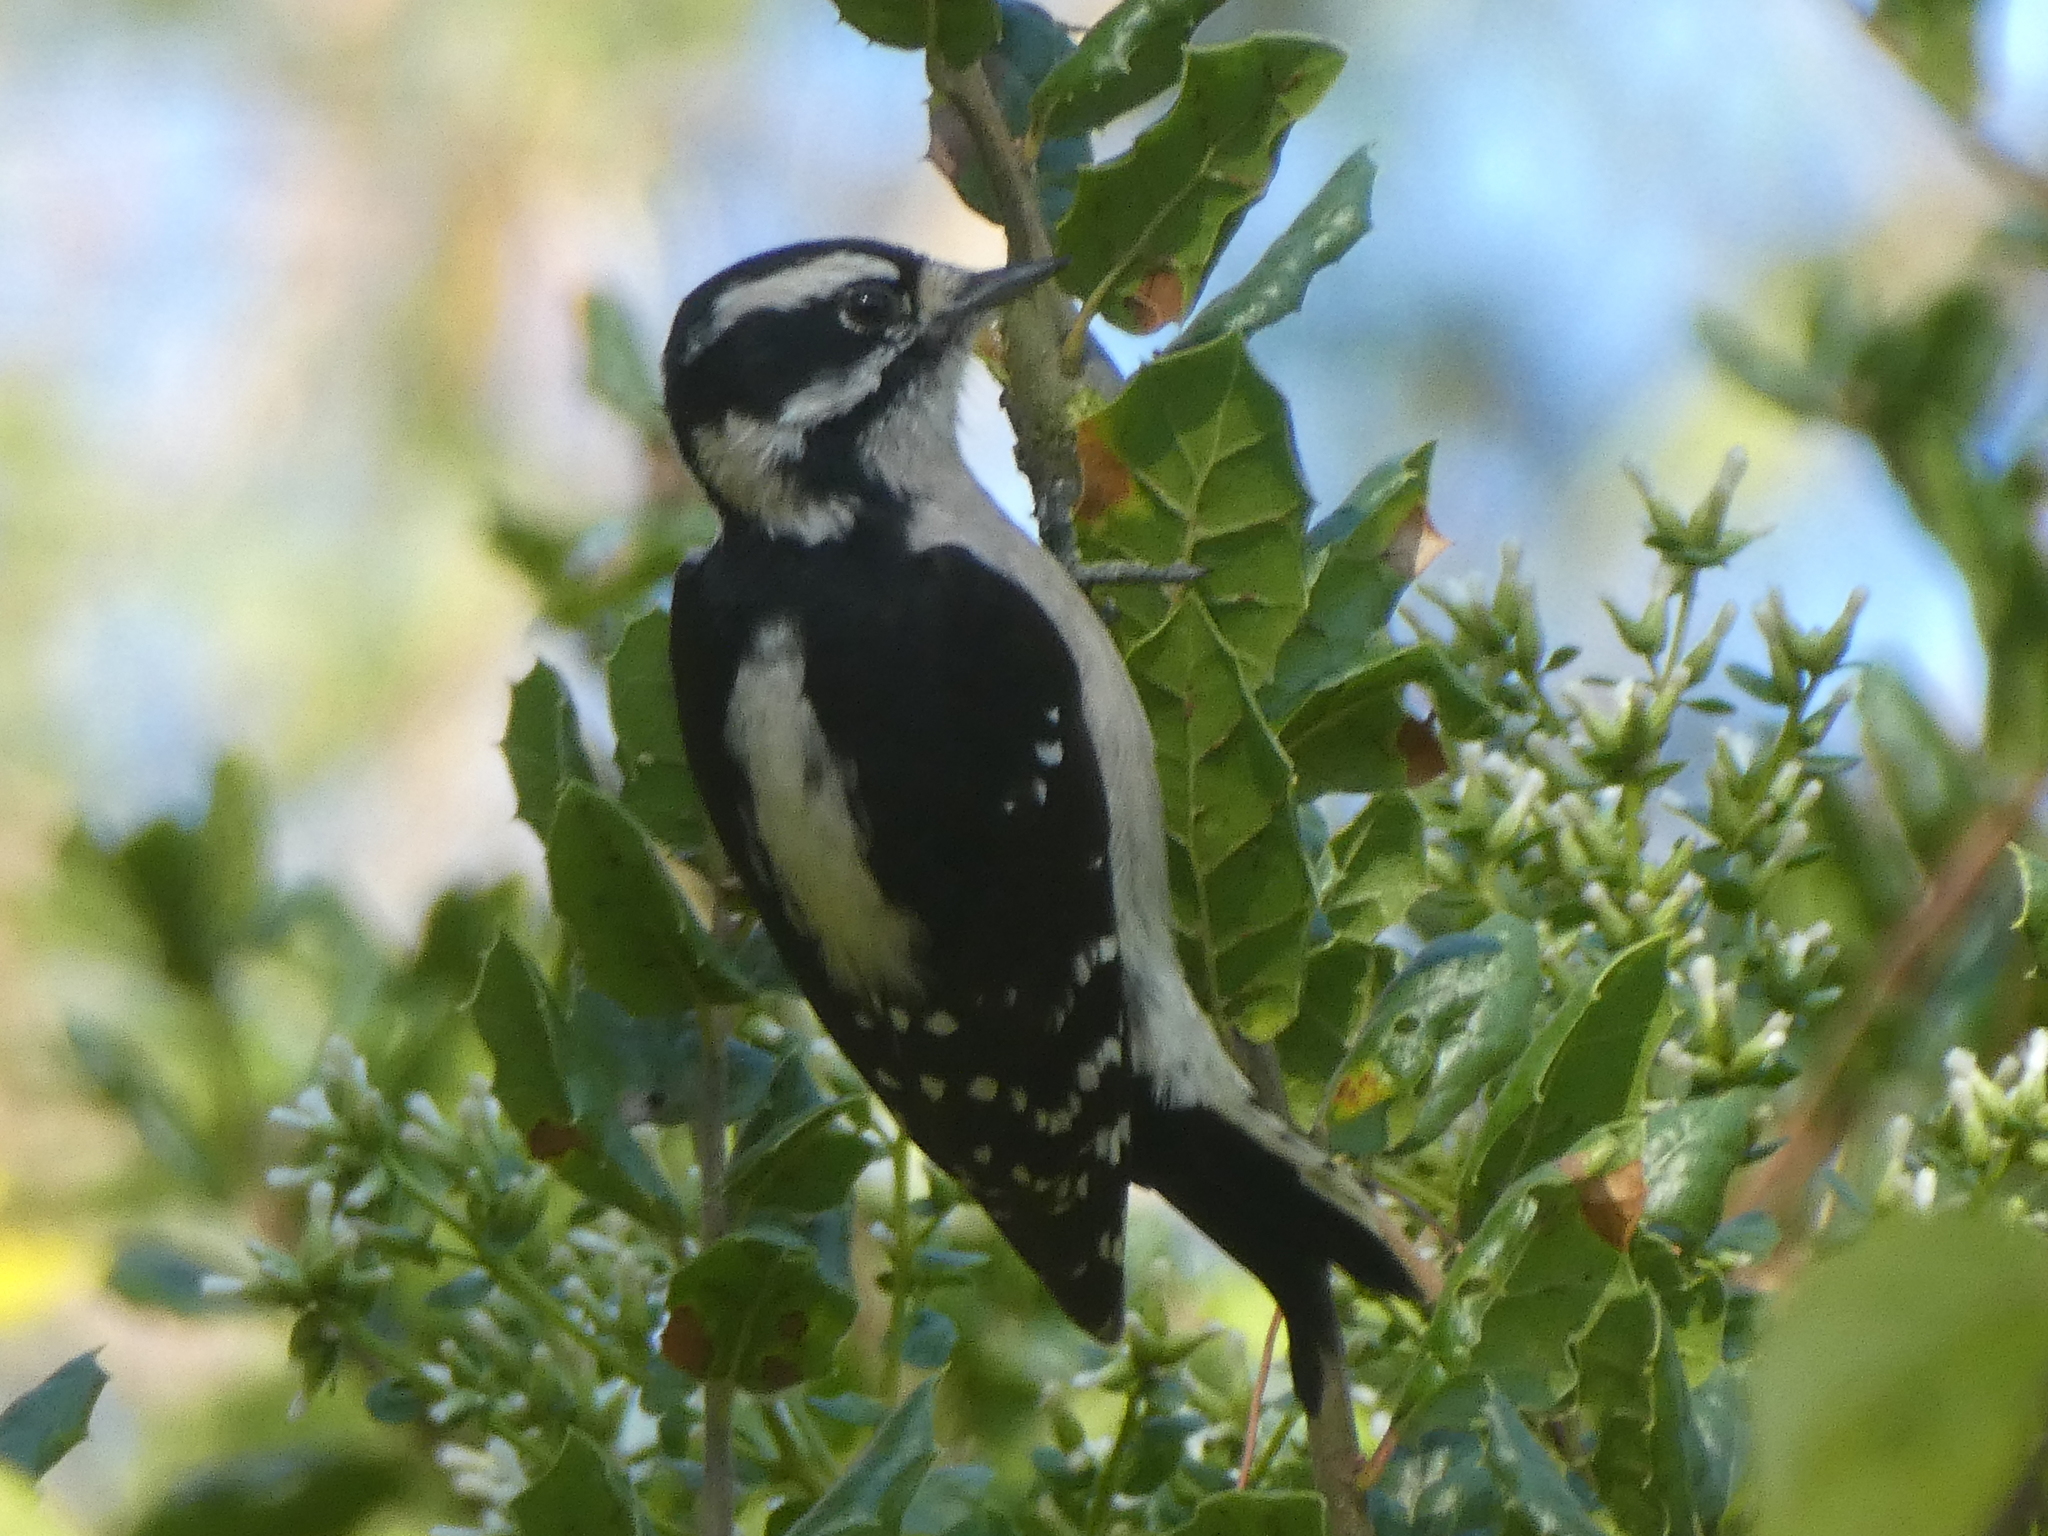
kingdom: Animalia
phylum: Chordata
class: Aves
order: Piciformes
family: Picidae
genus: Dryobates
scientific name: Dryobates pubescens
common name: Downy woodpecker
